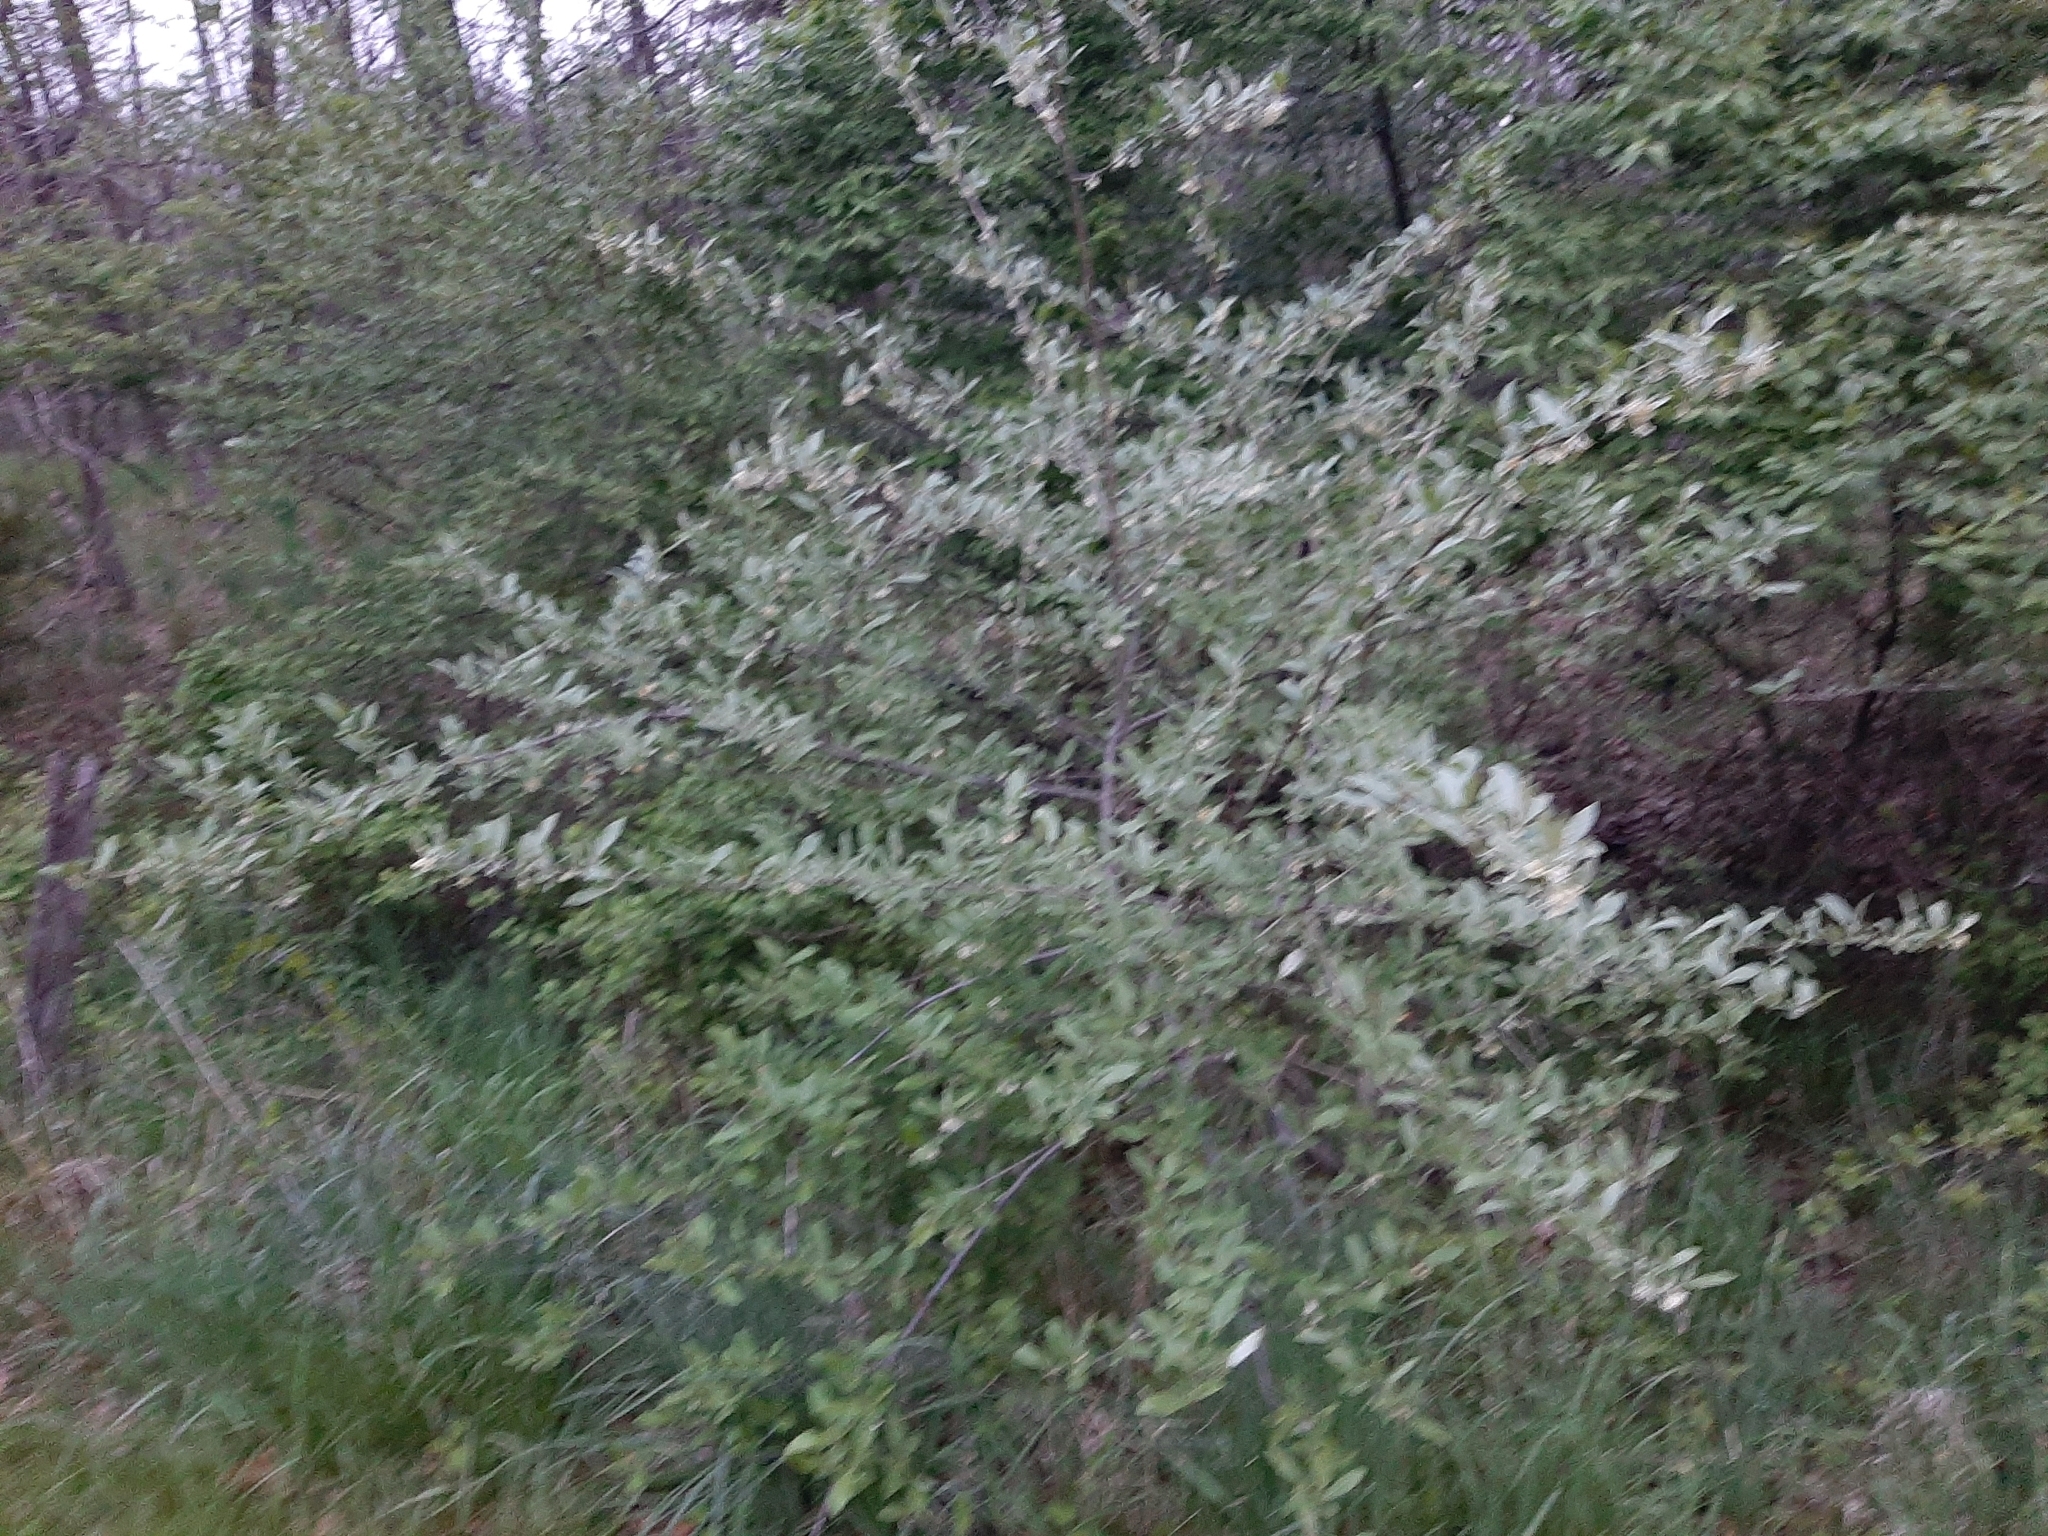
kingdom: Plantae
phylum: Tracheophyta
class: Magnoliopsida
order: Rosales
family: Elaeagnaceae
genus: Elaeagnus
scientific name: Elaeagnus umbellata
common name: Autumn olive
